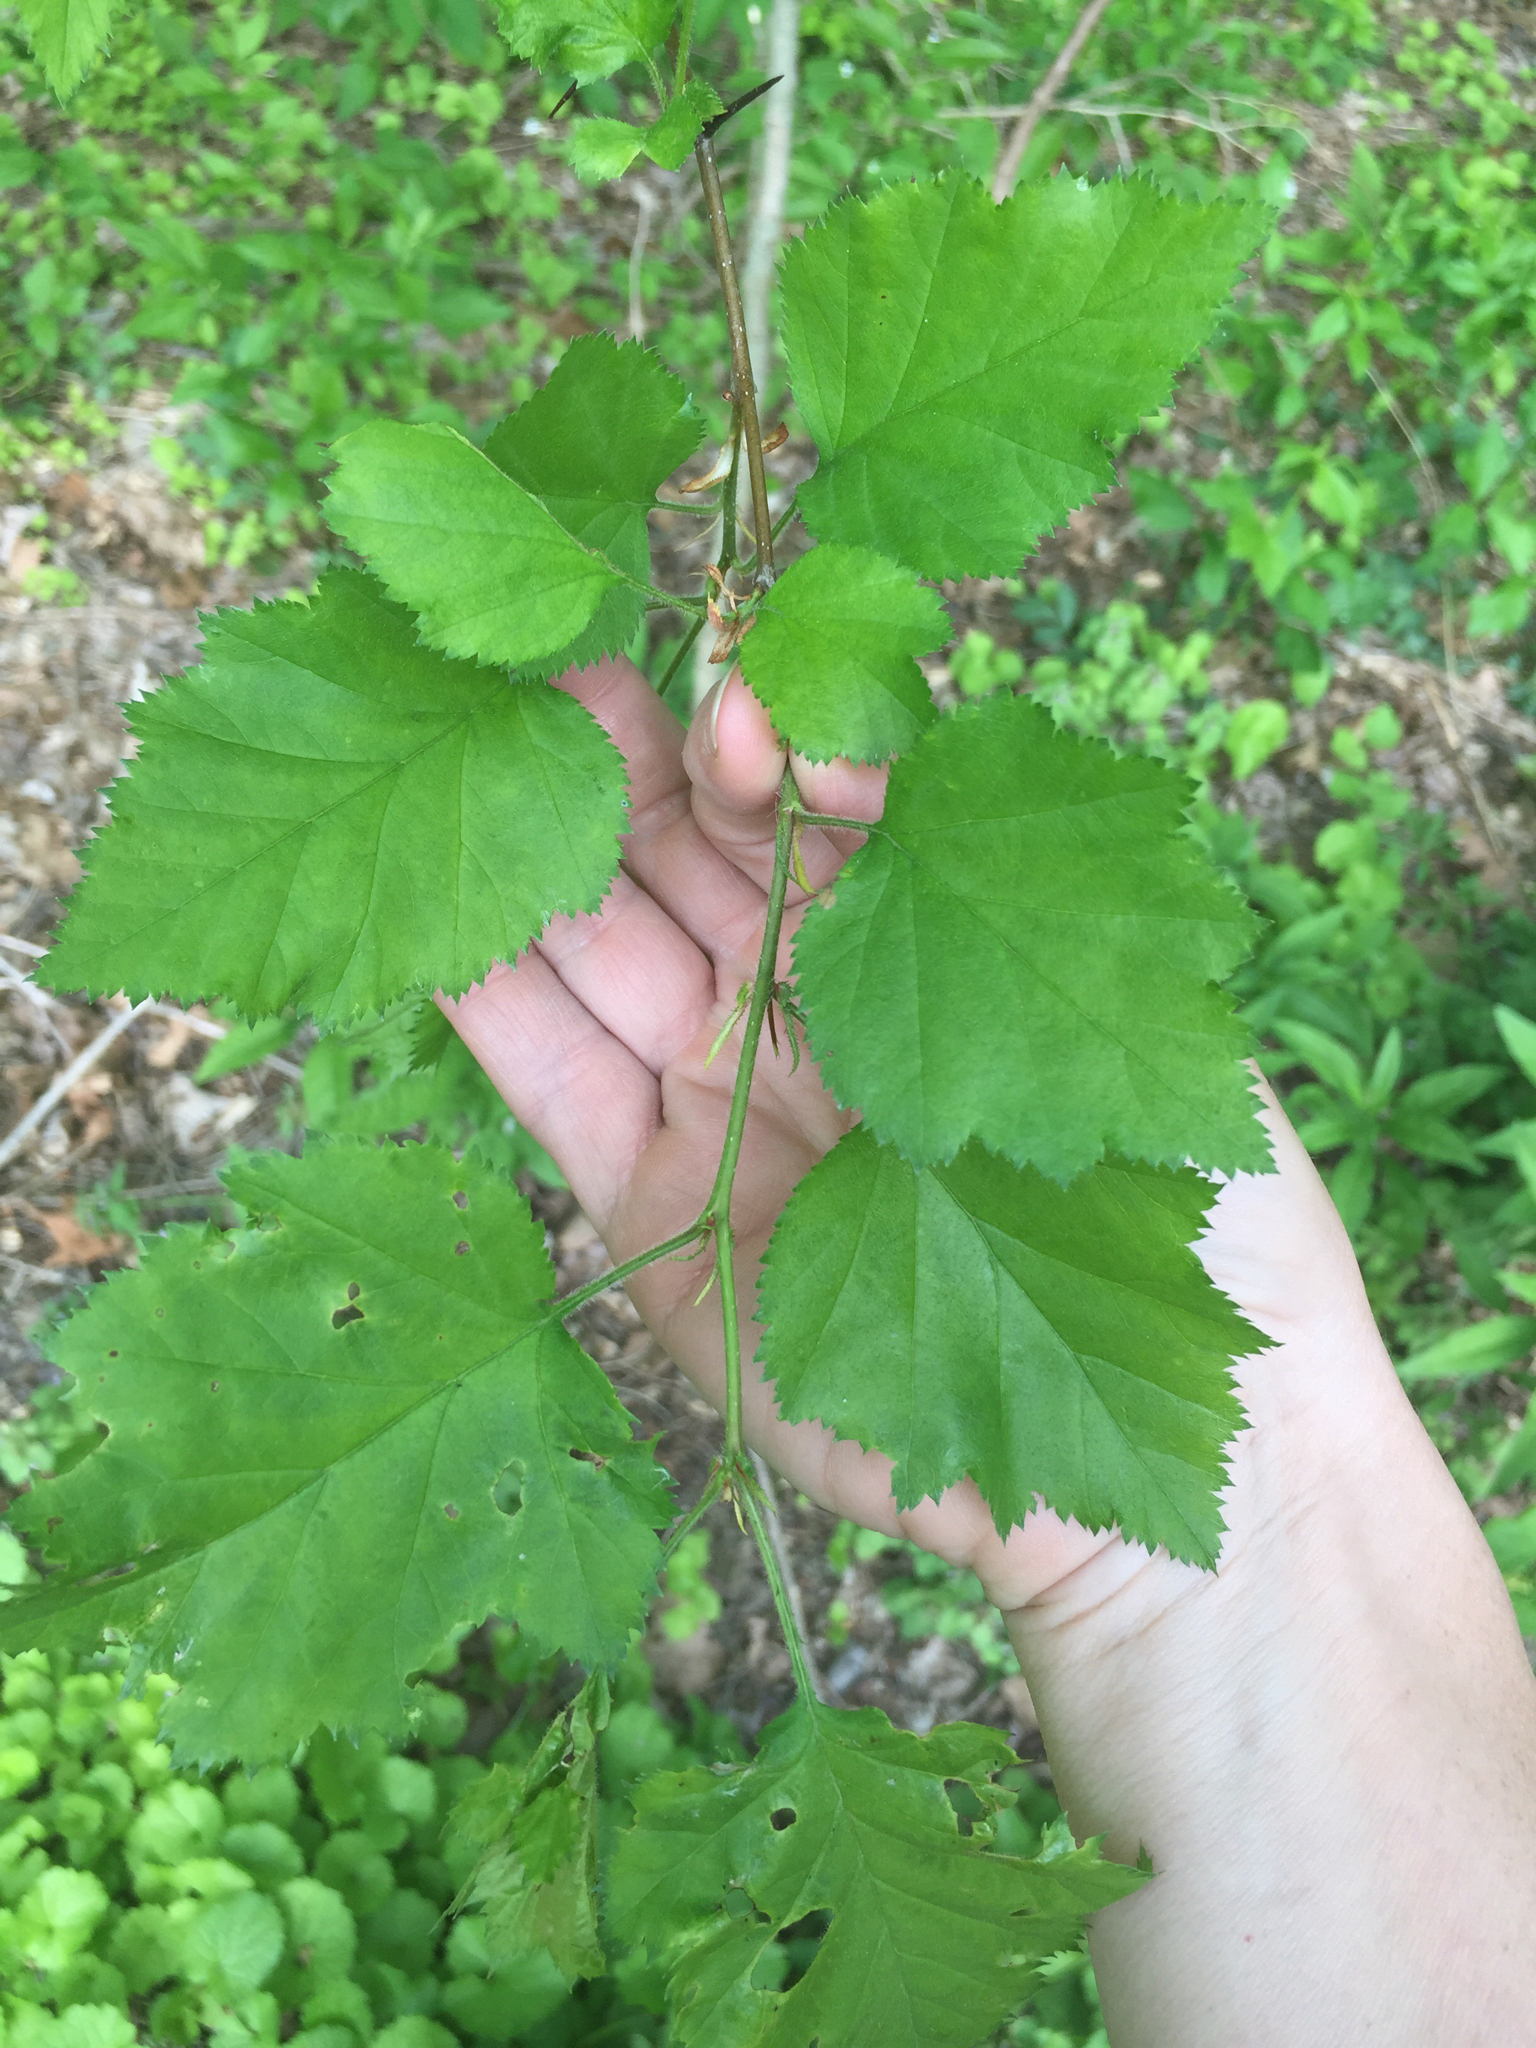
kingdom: Plantae
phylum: Tracheophyta
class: Magnoliopsida
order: Rosales
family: Rosaceae
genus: Crataegus
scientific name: Crataegus coccinea
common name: Scarlet hawthorn
